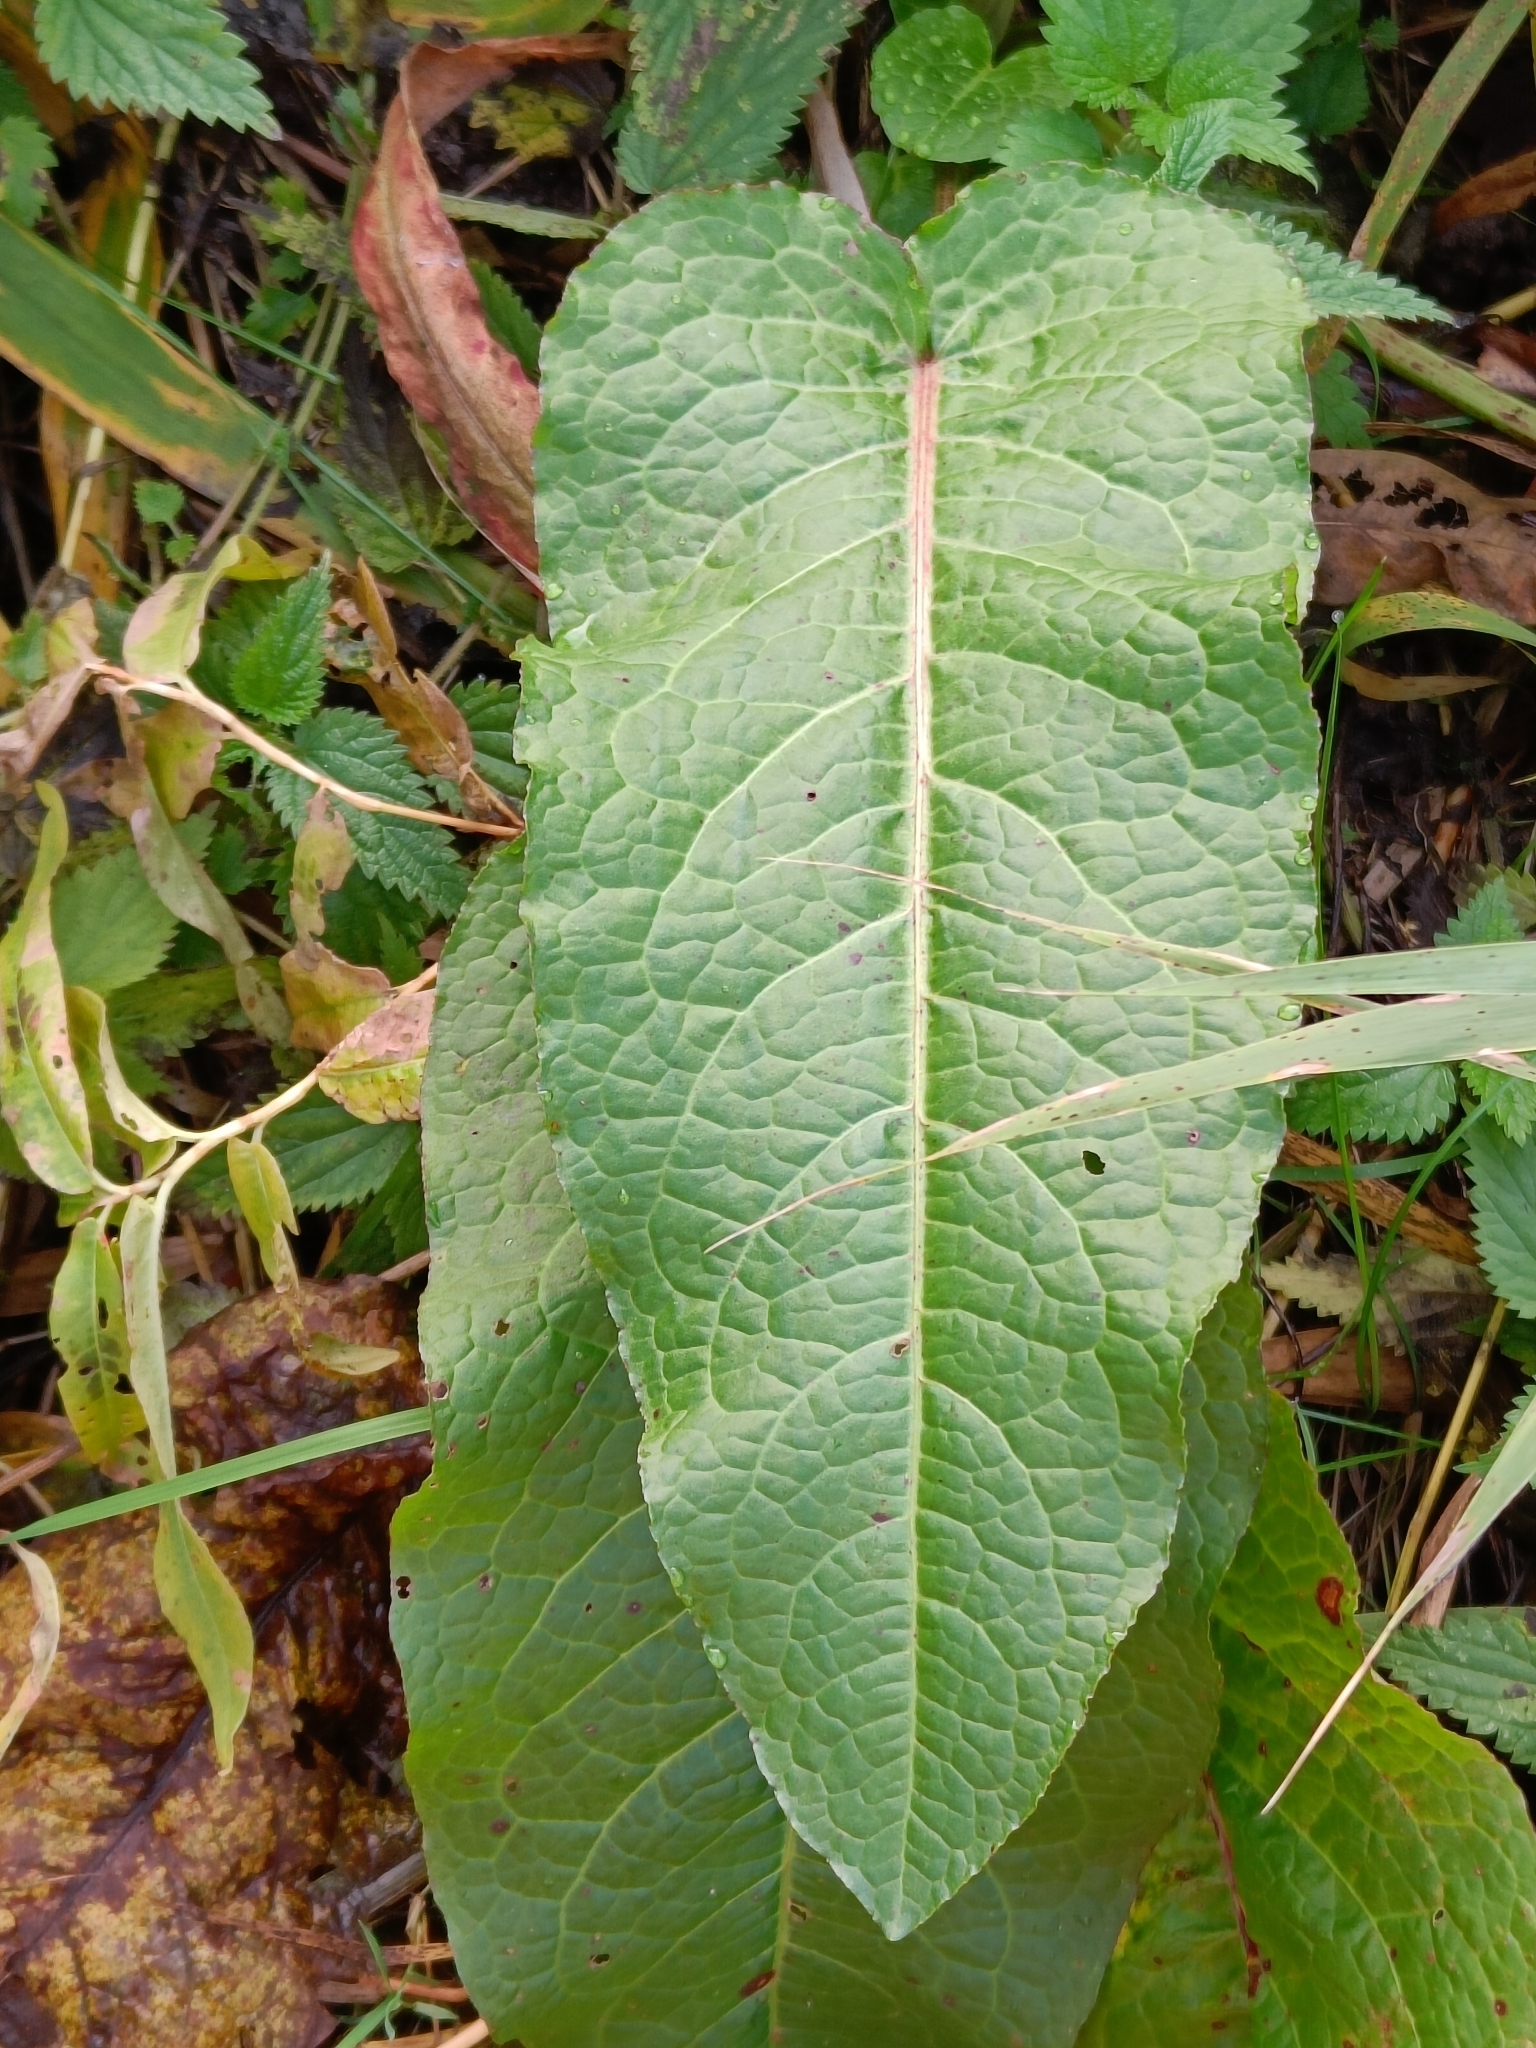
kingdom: Plantae
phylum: Tracheophyta
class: Magnoliopsida
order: Caryophyllales
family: Polygonaceae
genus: Rumex
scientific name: Rumex obtusifolius
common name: Bitter dock
